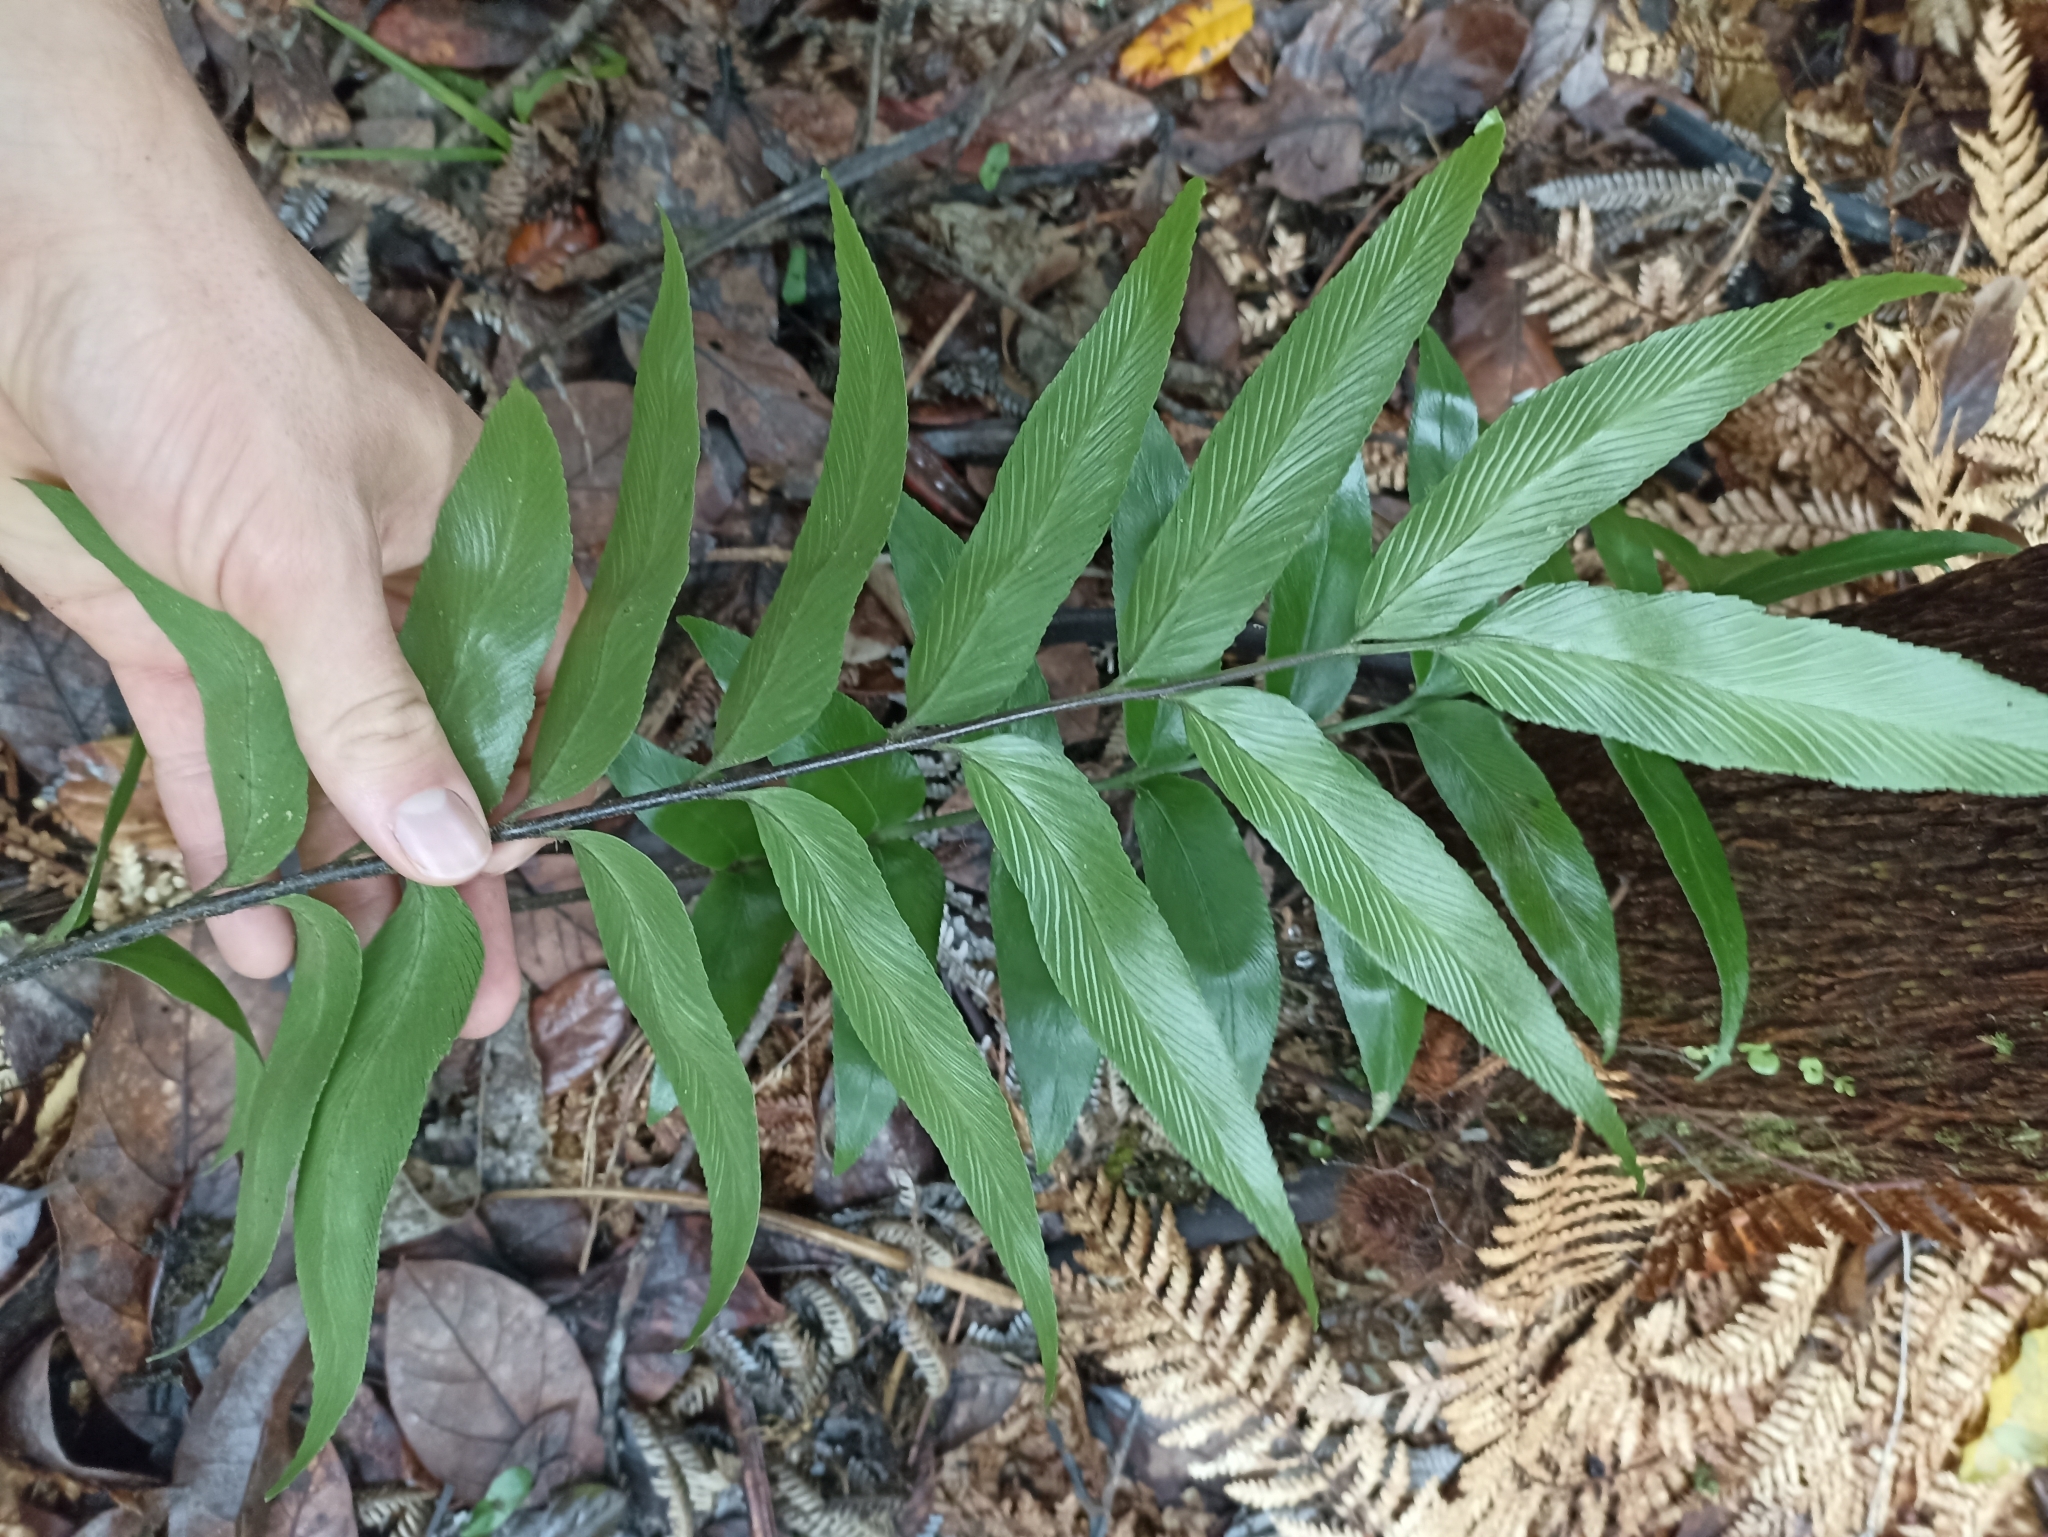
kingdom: Plantae
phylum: Tracheophyta
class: Polypodiopsida
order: Polypodiales
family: Aspleniaceae
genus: Asplenium
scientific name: Asplenium oblongifolium
